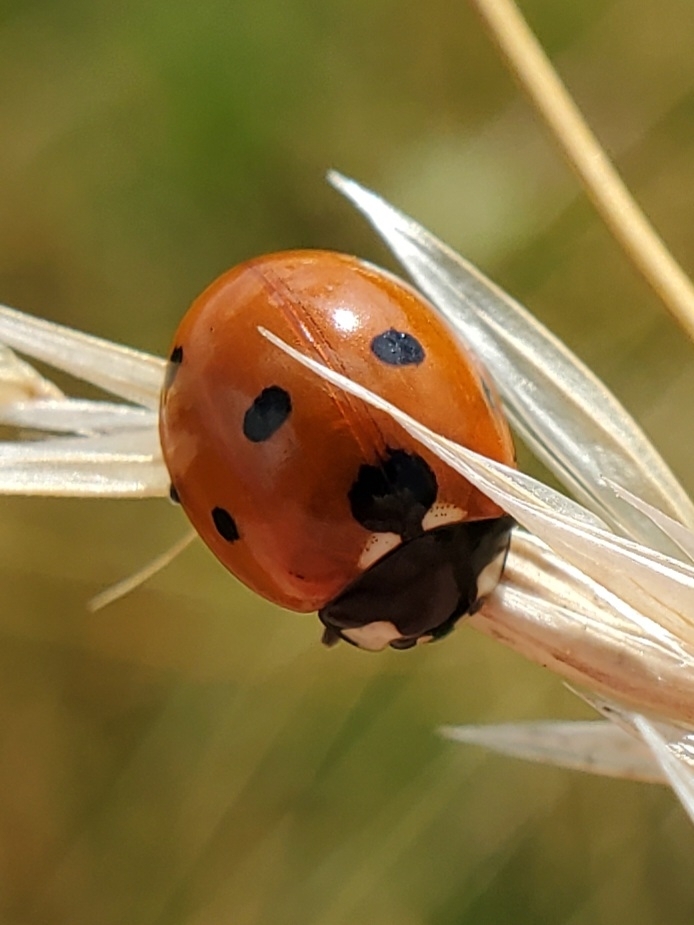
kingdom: Animalia
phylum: Arthropoda
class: Insecta
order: Coleoptera
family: Coccinellidae
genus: Coccinella
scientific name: Coccinella septempunctata
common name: Sevenspotted lady beetle
